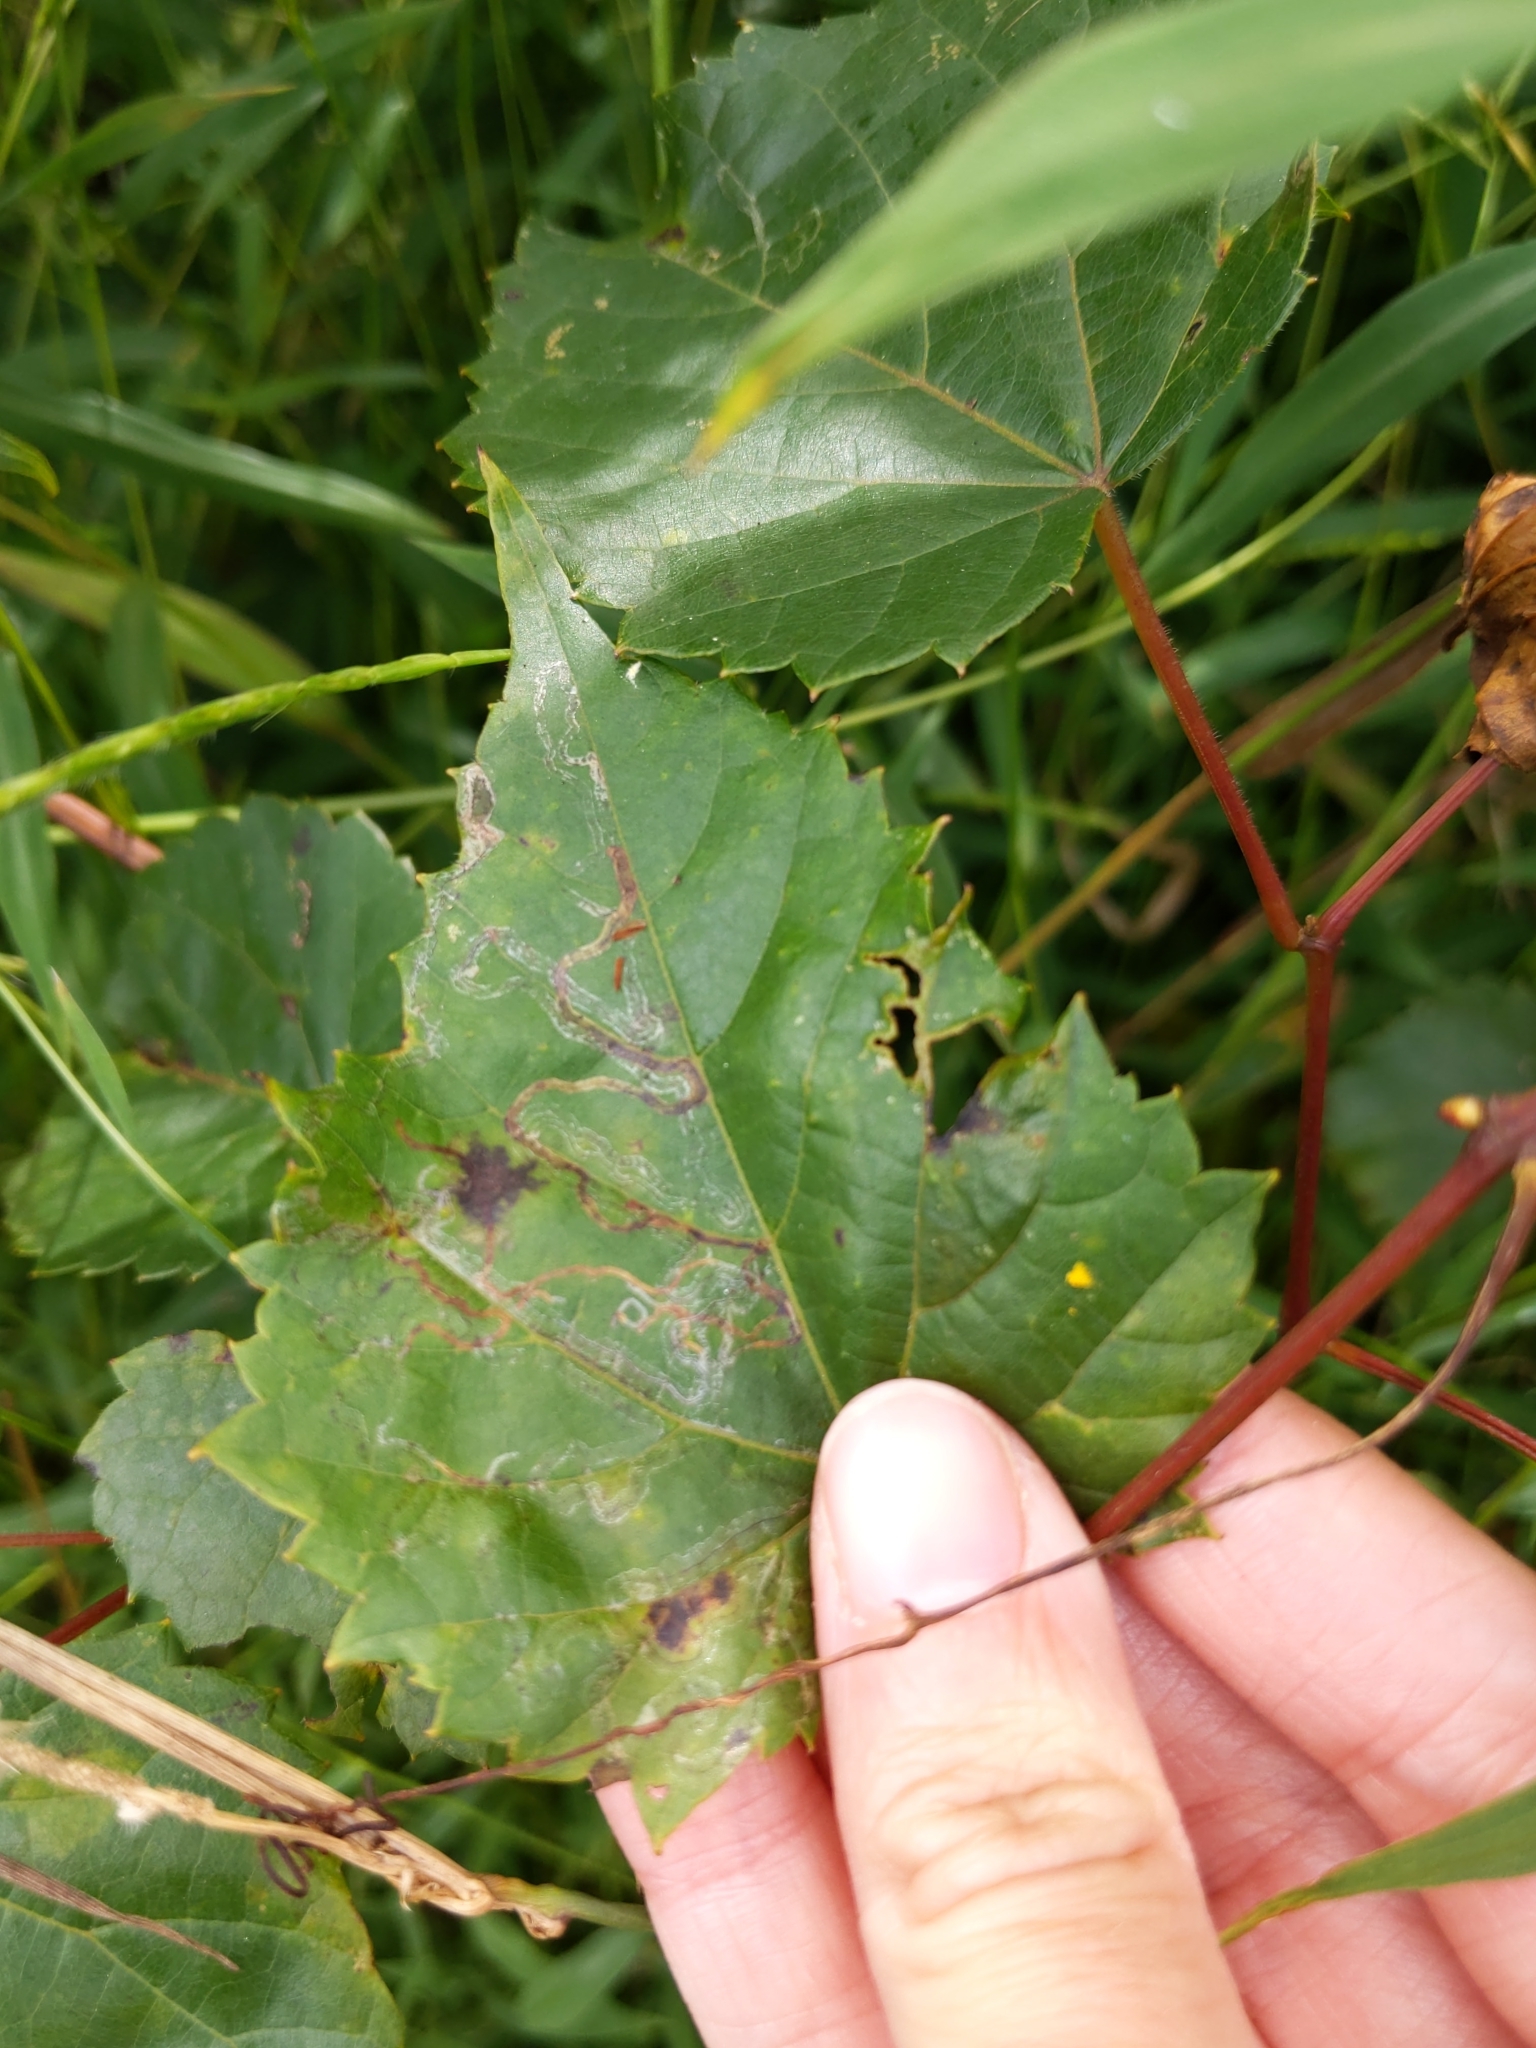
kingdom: Animalia
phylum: Arthropoda
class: Insecta
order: Lepidoptera
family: Gracillariidae
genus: Phyllocnistis
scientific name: Phyllocnistis vitegenella
